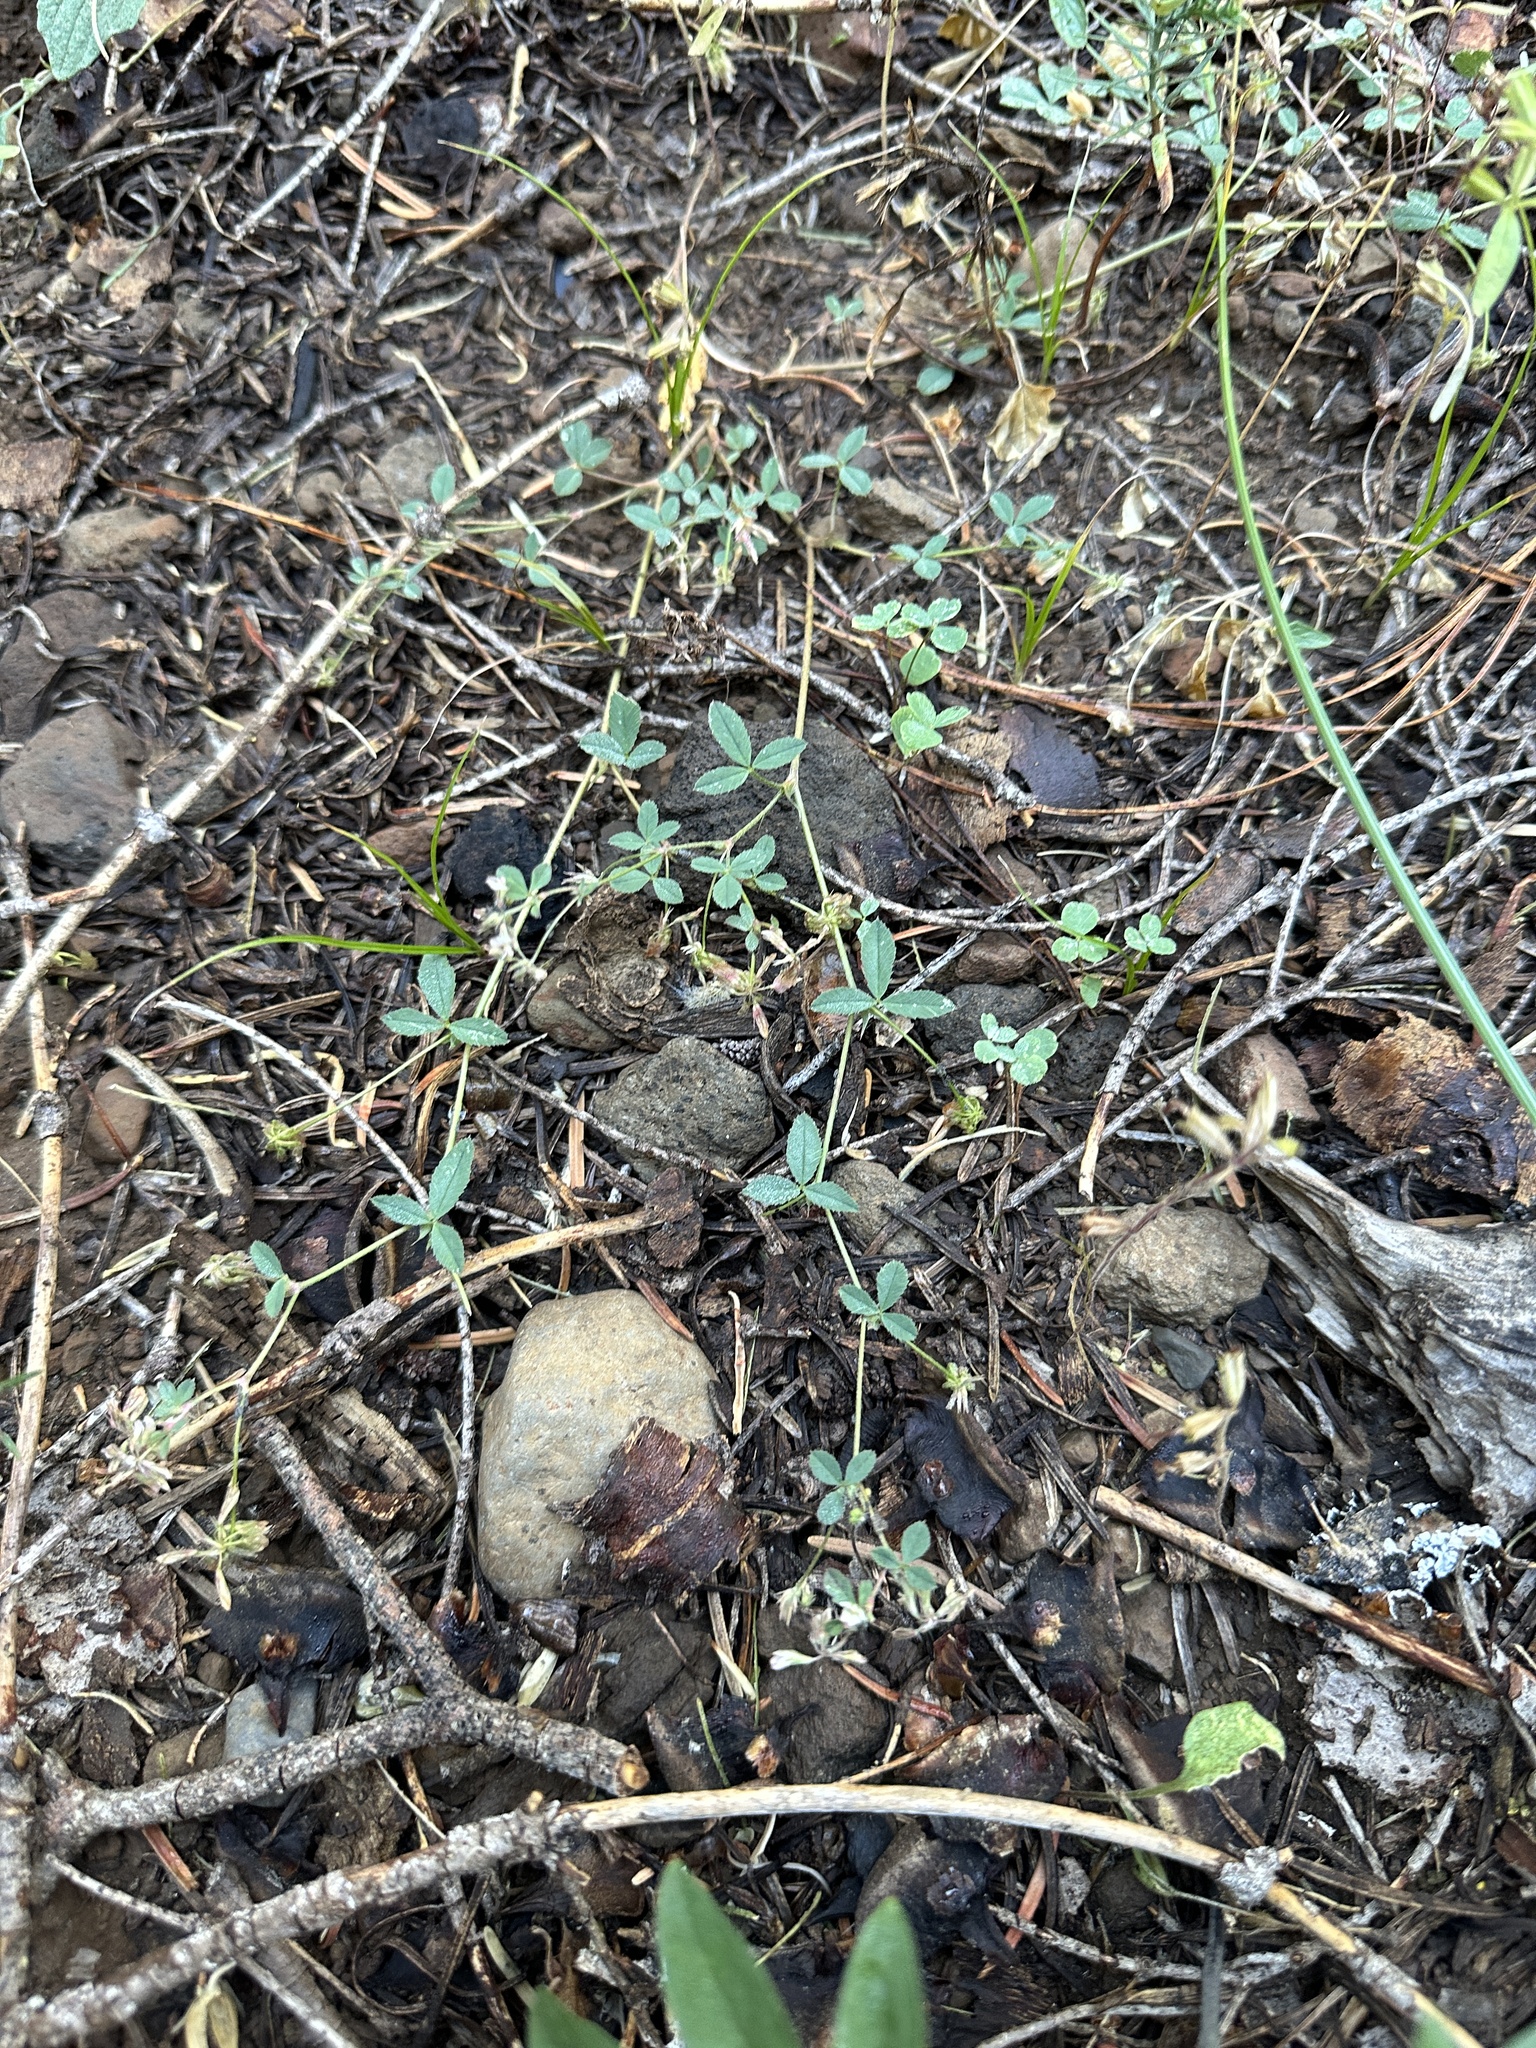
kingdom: Plantae
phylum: Tracheophyta
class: Magnoliopsida
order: Fabales
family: Fabaceae
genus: Trifolium
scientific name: Trifolium breweri
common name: Forest clover
